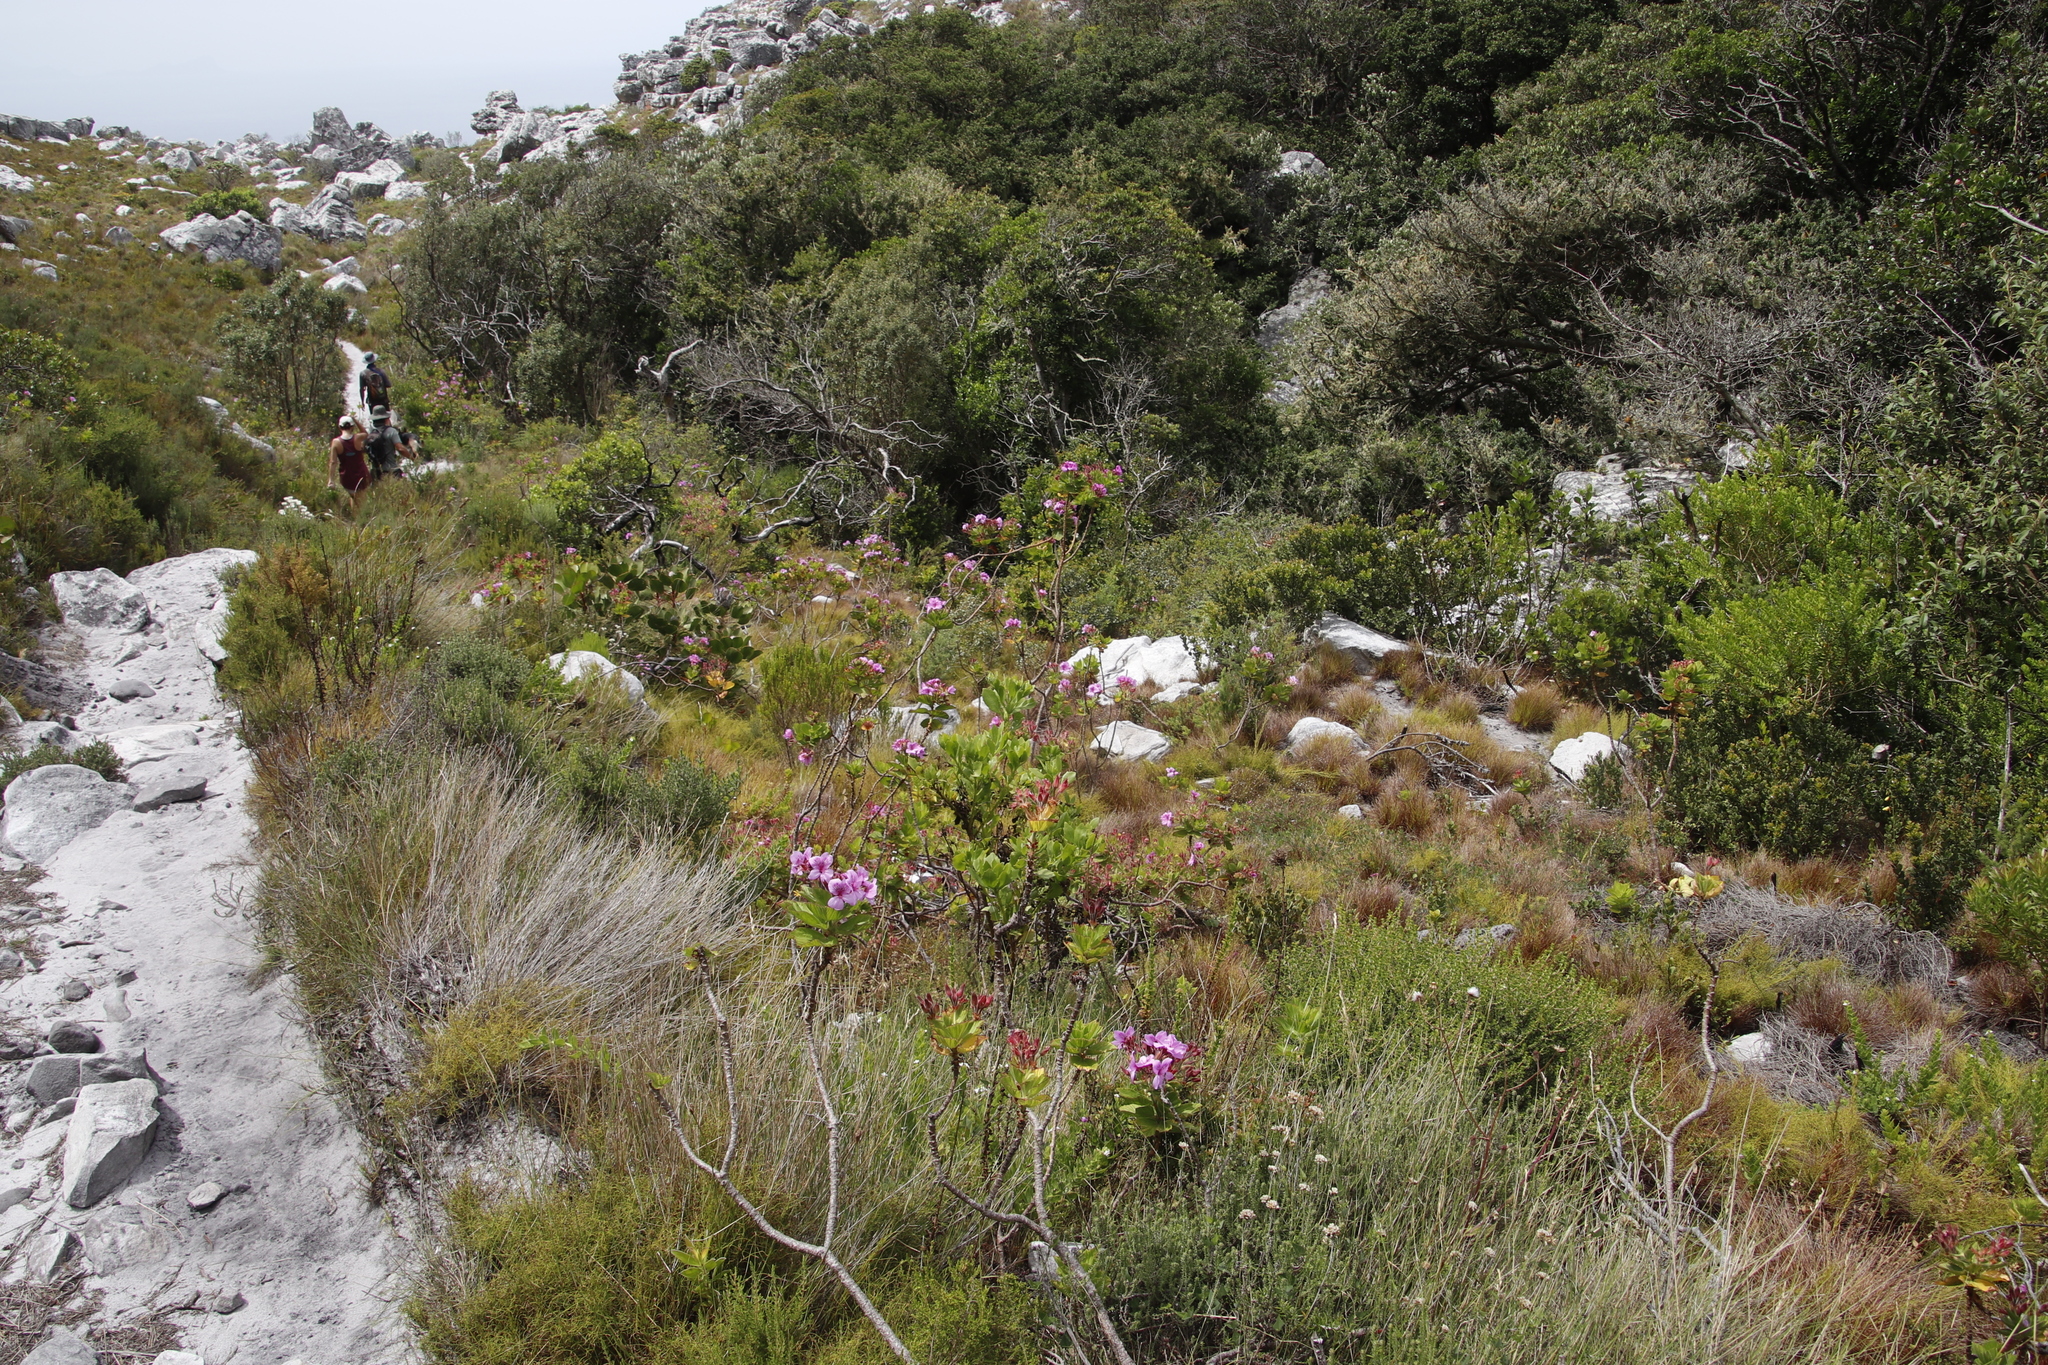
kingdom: Plantae
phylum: Tracheophyta
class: Magnoliopsida
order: Geraniales
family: Geraniaceae
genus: Pelargonium
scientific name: Pelargonium cucullatum
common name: Tree pelargonium
